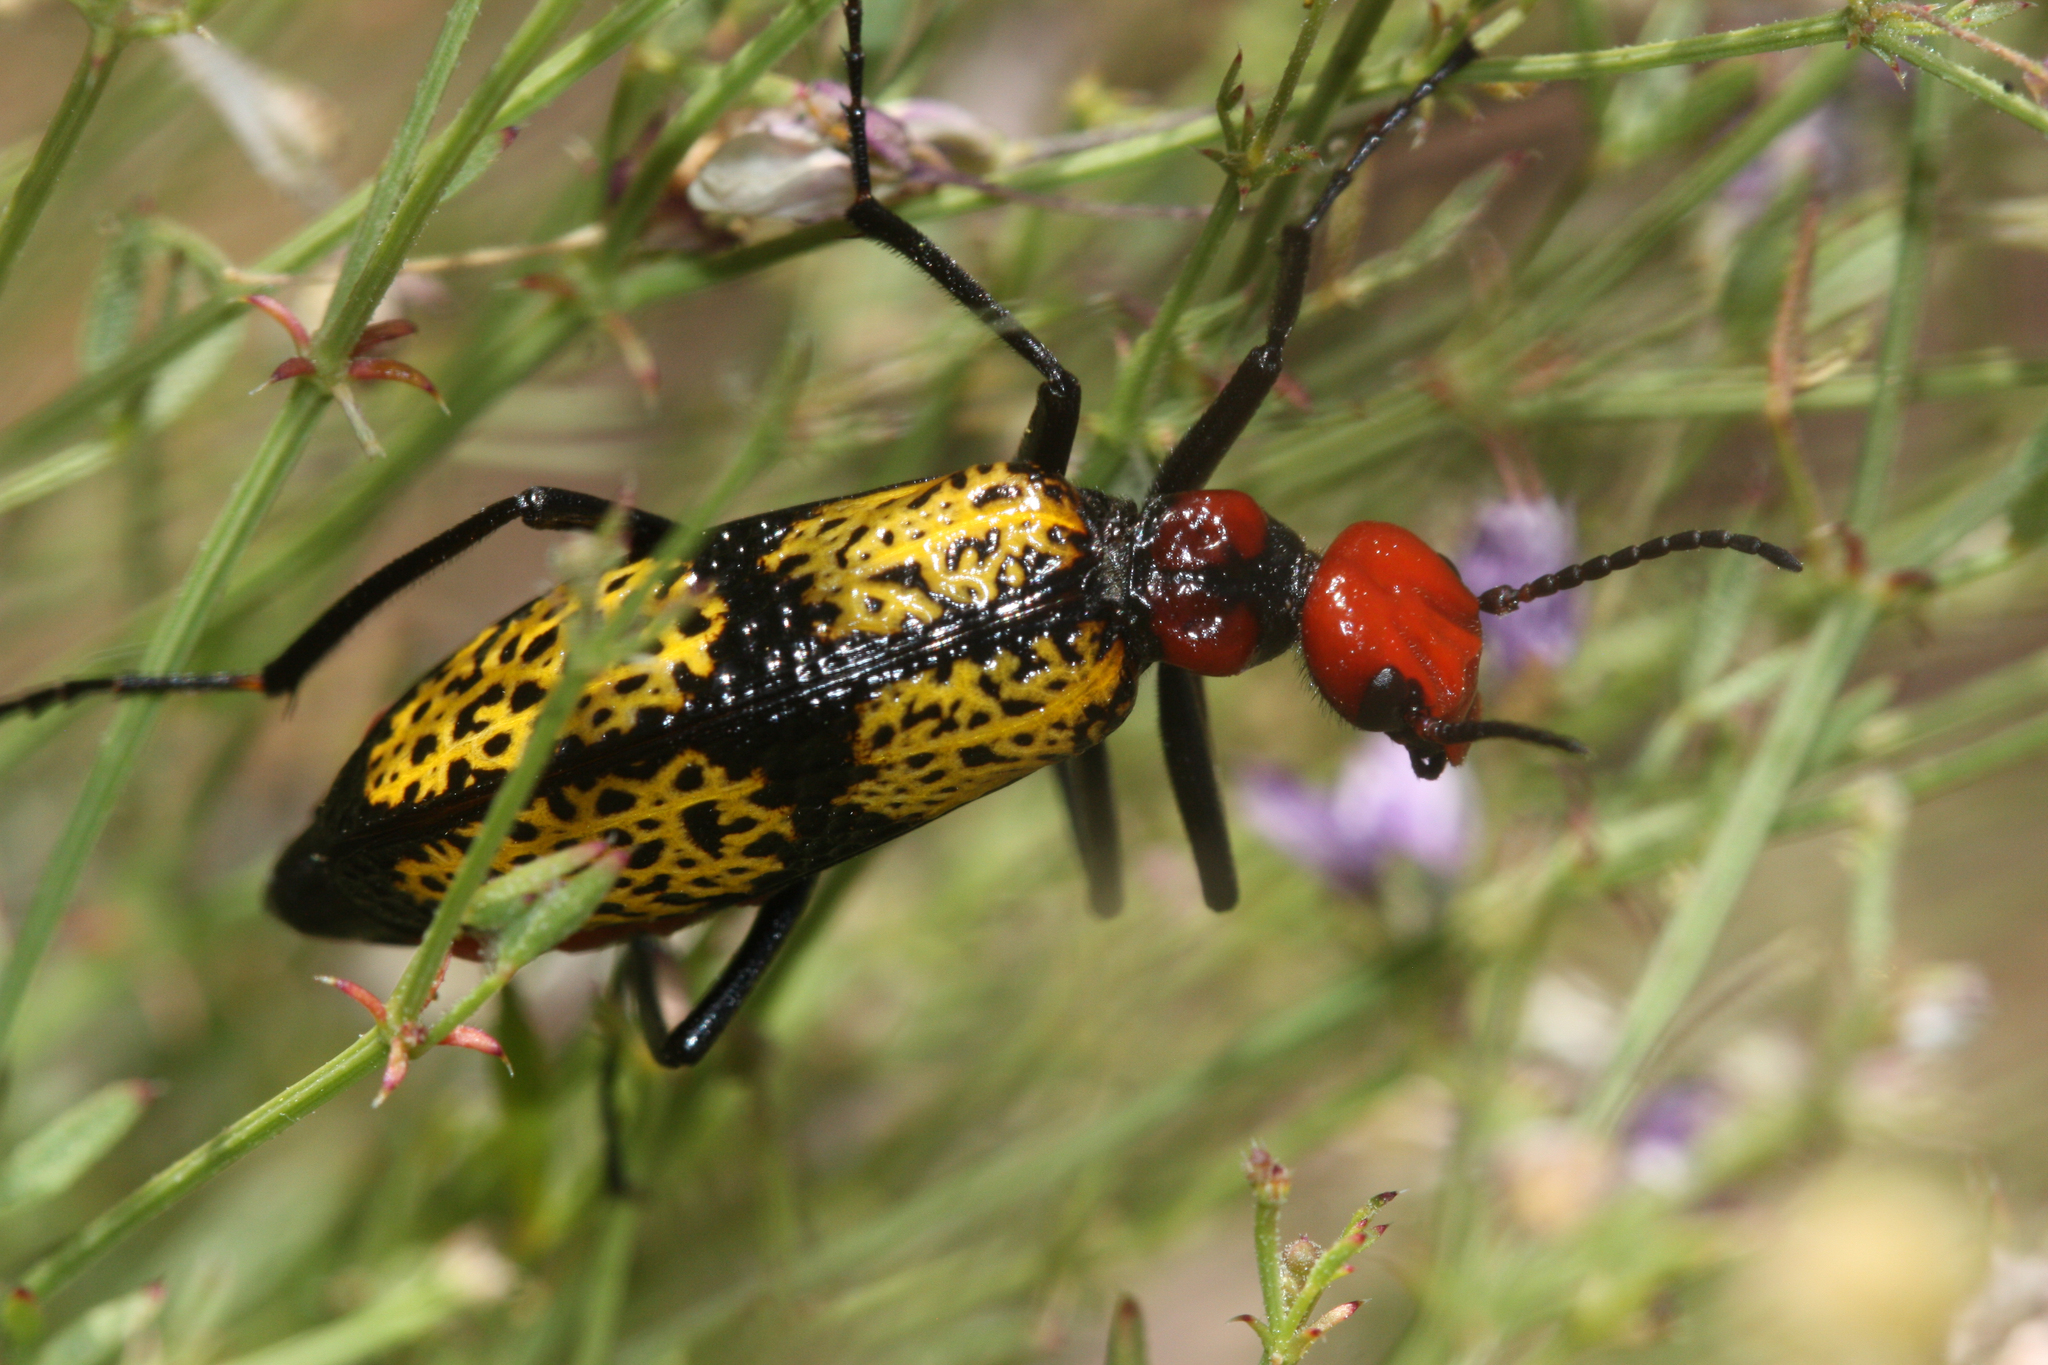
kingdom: Animalia
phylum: Arthropoda
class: Insecta
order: Coleoptera
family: Meloidae
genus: Tegrodera
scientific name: Tegrodera aloga
